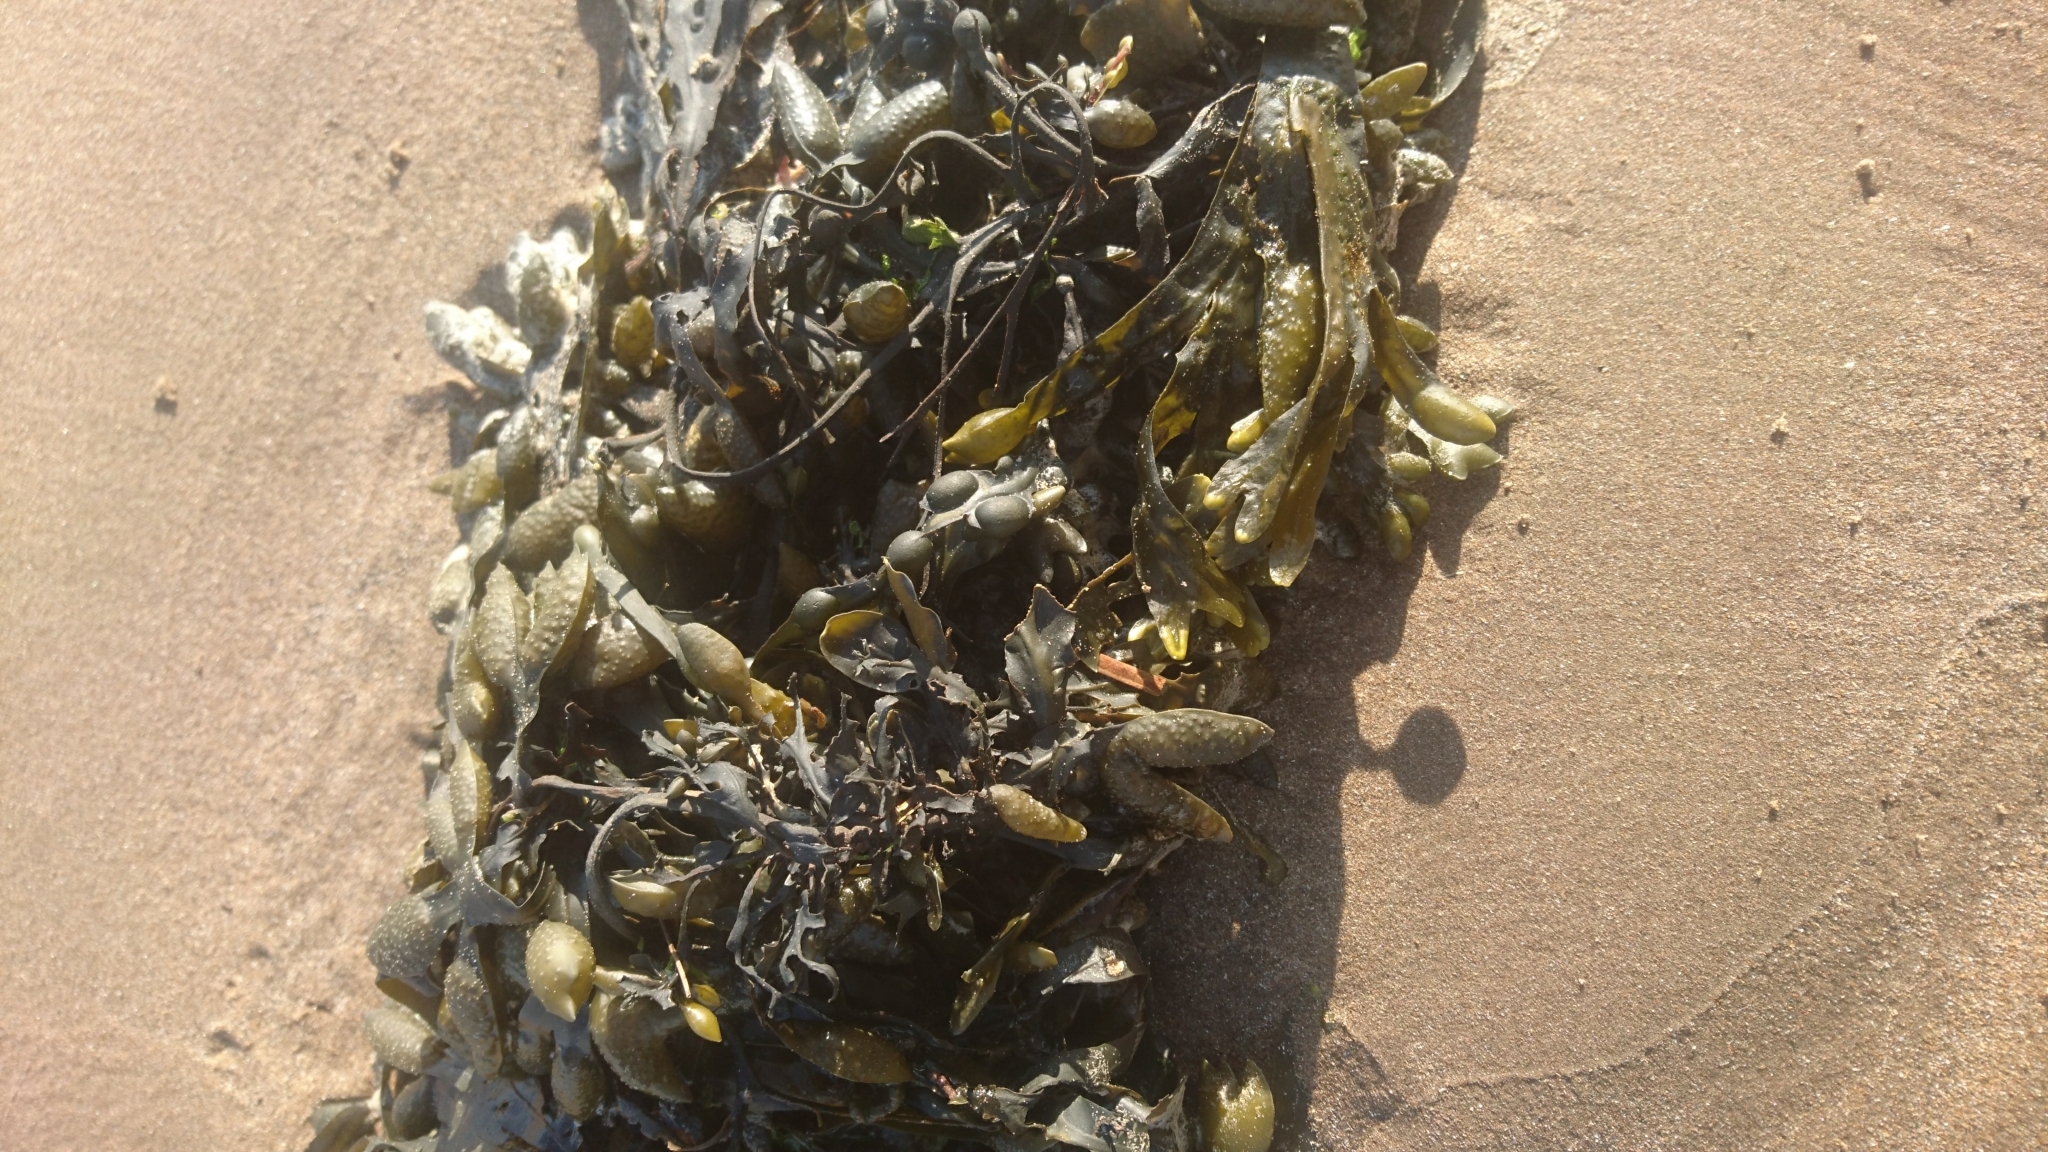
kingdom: Chromista
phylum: Ochrophyta
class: Phaeophyceae
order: Fucales
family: Fucaceae
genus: Fucus
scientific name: Fucus vesiculosus
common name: Bladder wrack
